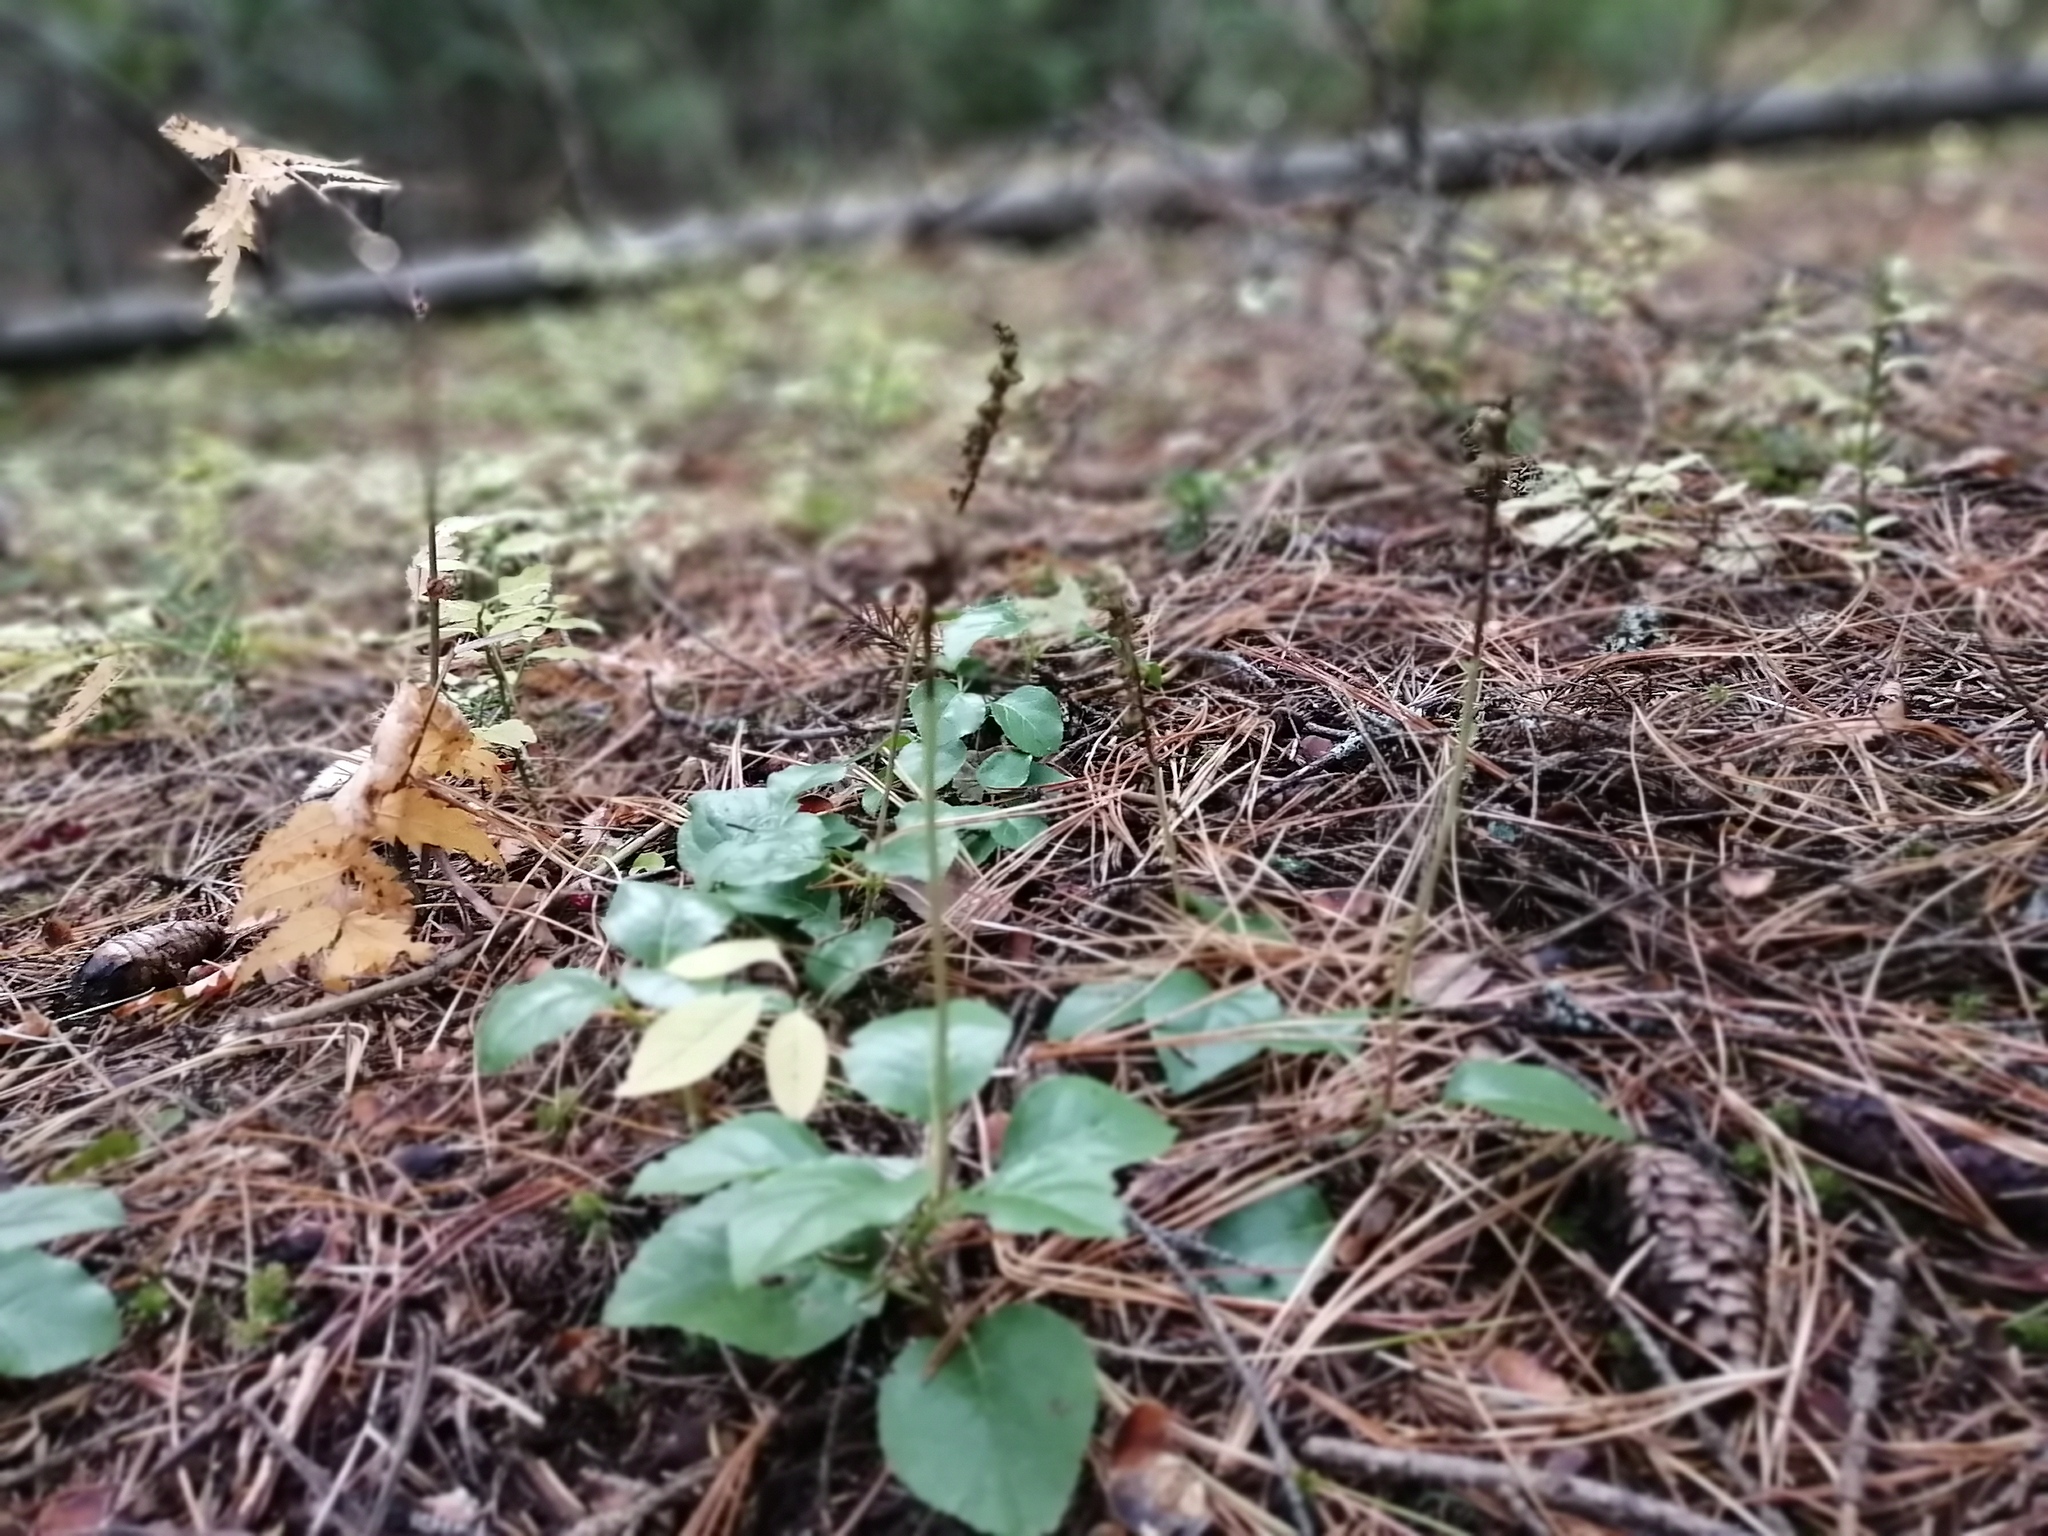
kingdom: Plantae
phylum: Tracheophyta
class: Magnoliopsida
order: Ericales
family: Ericaceae
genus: Orthilia
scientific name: Orthilia secunda
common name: One-sided orthilia
